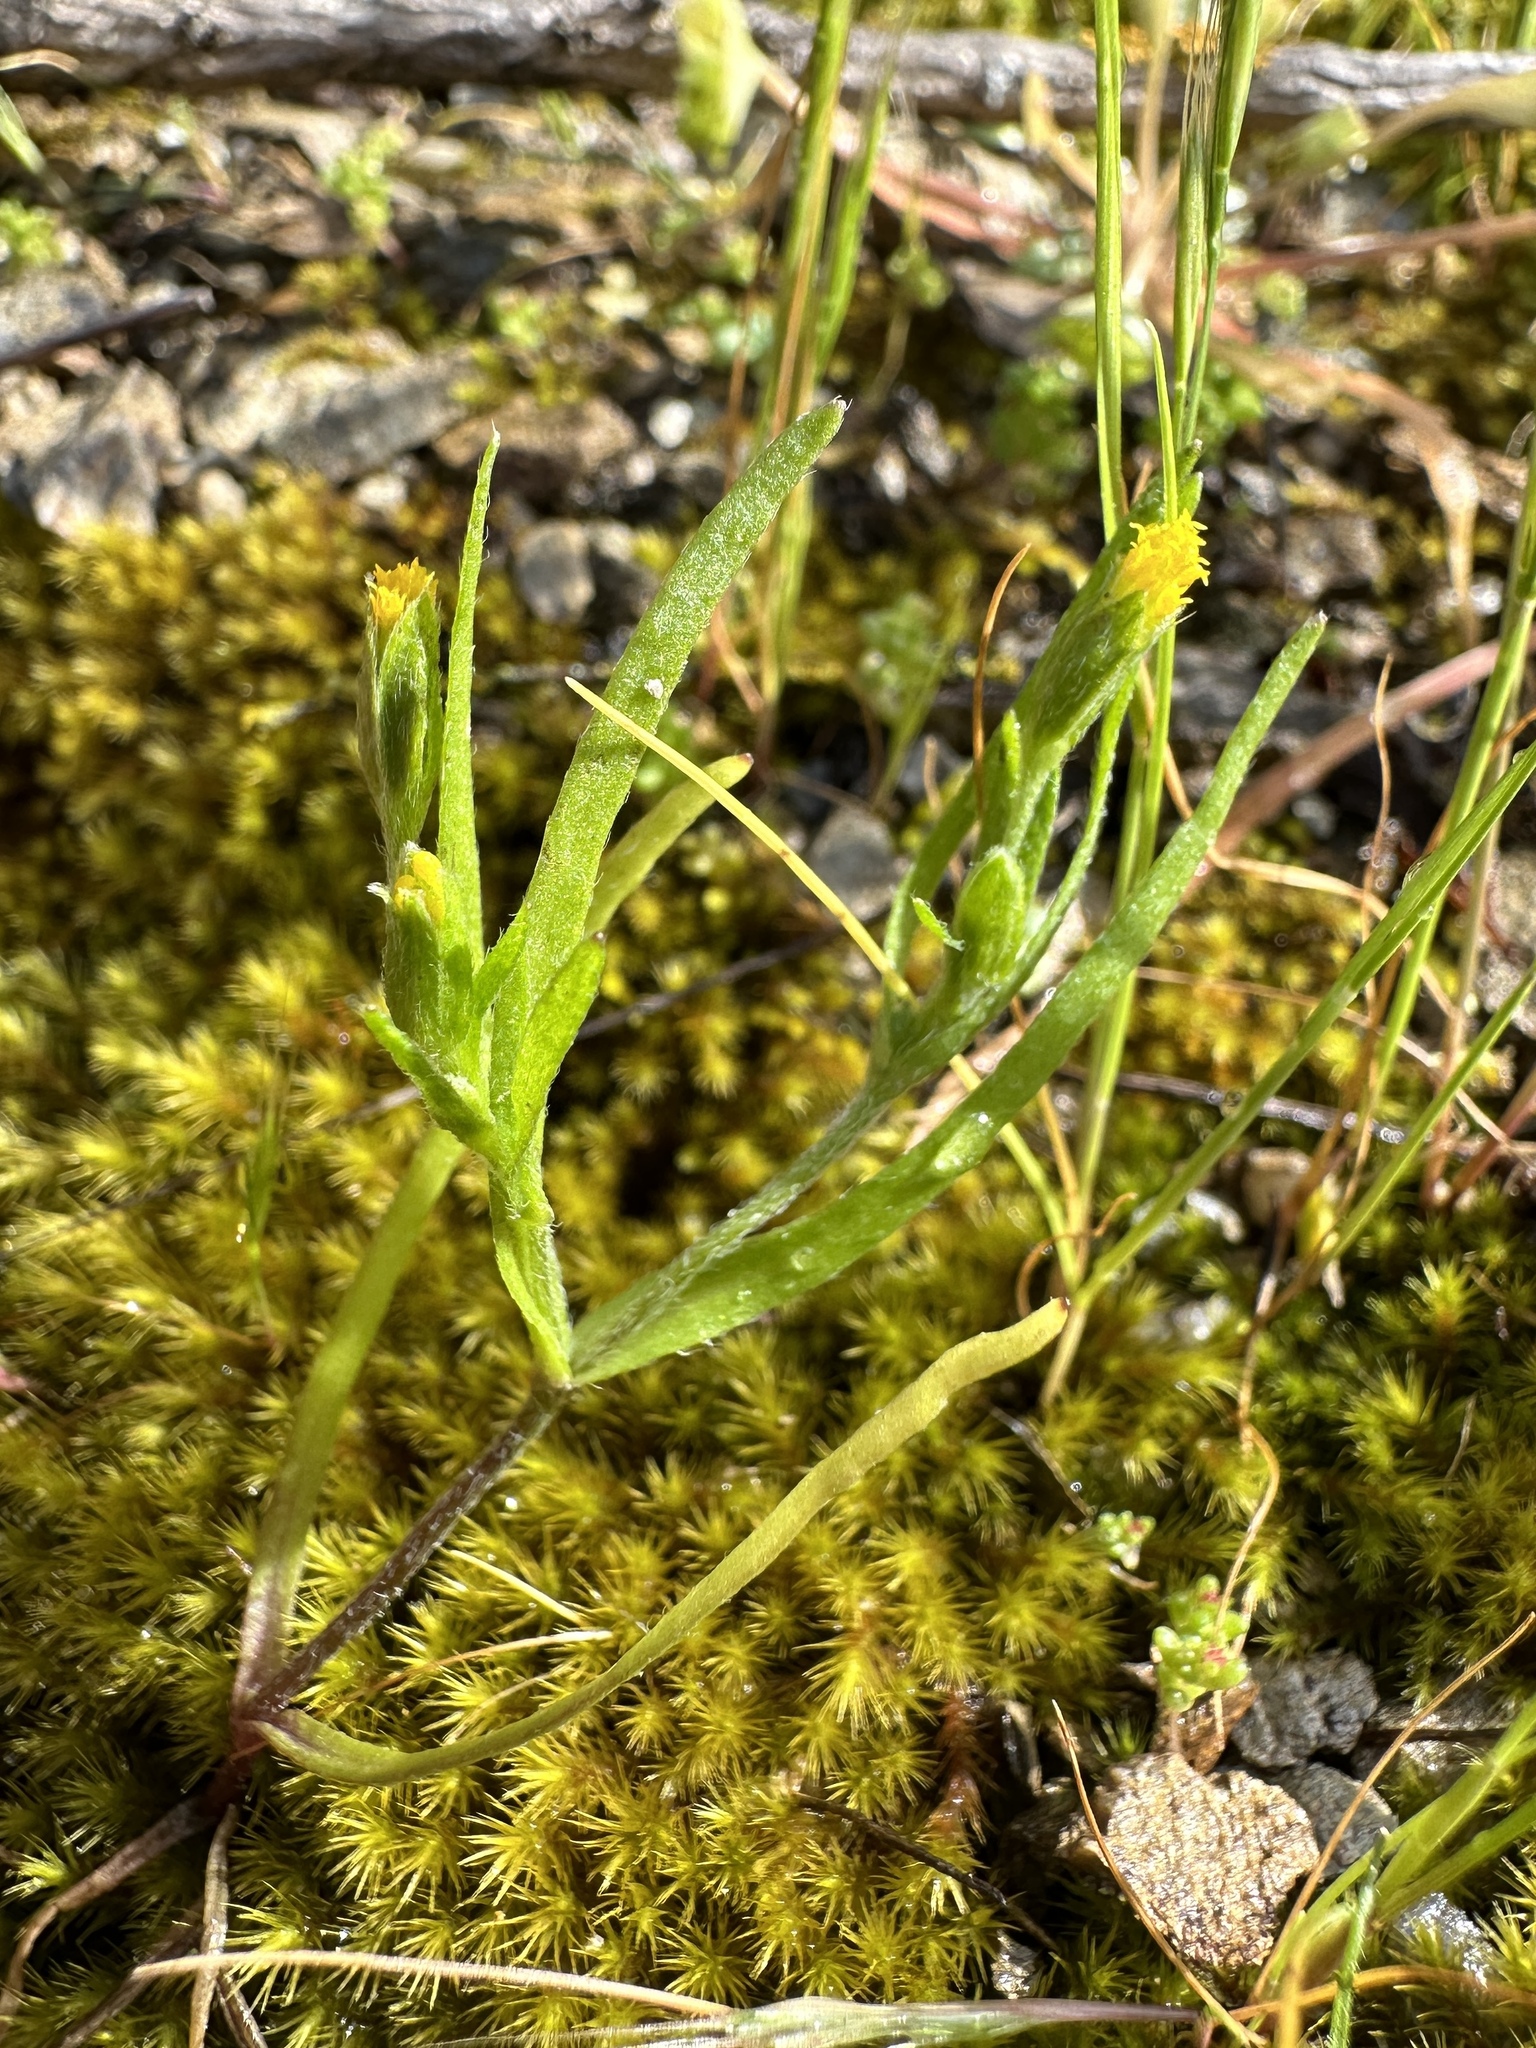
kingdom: Plantae
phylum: Tracheophyta
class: Magnoliopsida
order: Asterales
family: Asteraceae
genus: Lasthenia
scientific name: Lasthenia microglossa
